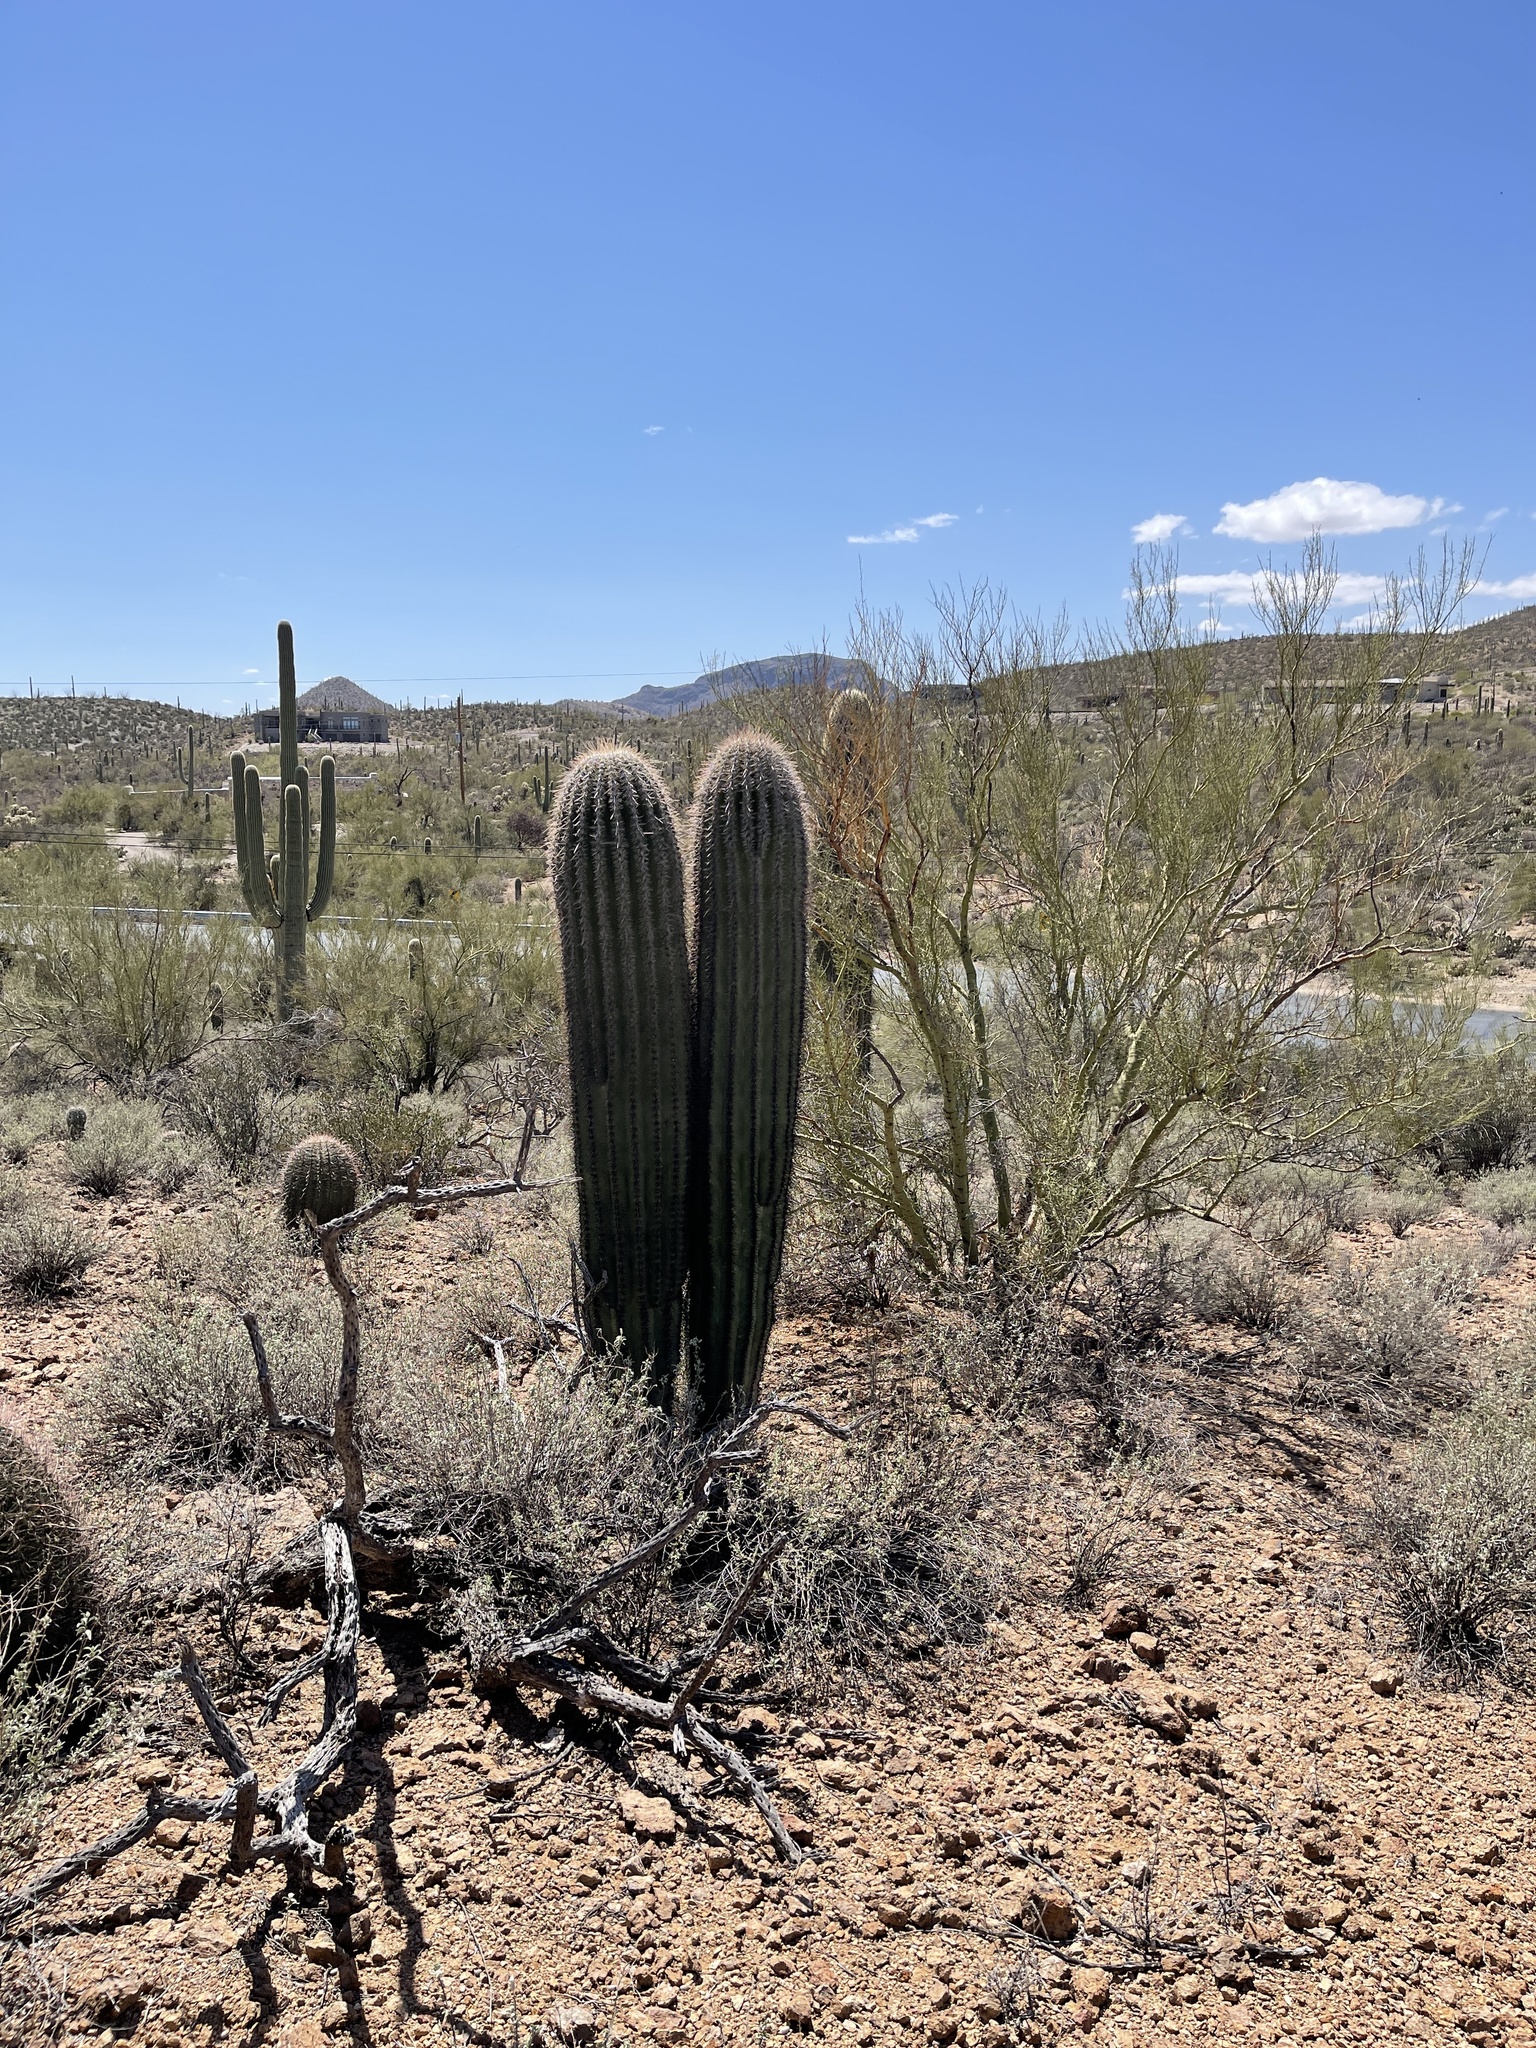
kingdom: Plantae
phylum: Tracheophyta
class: Magnoliopsida
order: Caryophyllales
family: Cactaceae
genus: Carnegiea
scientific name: Carnegiea gigantea
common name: Saguaro
